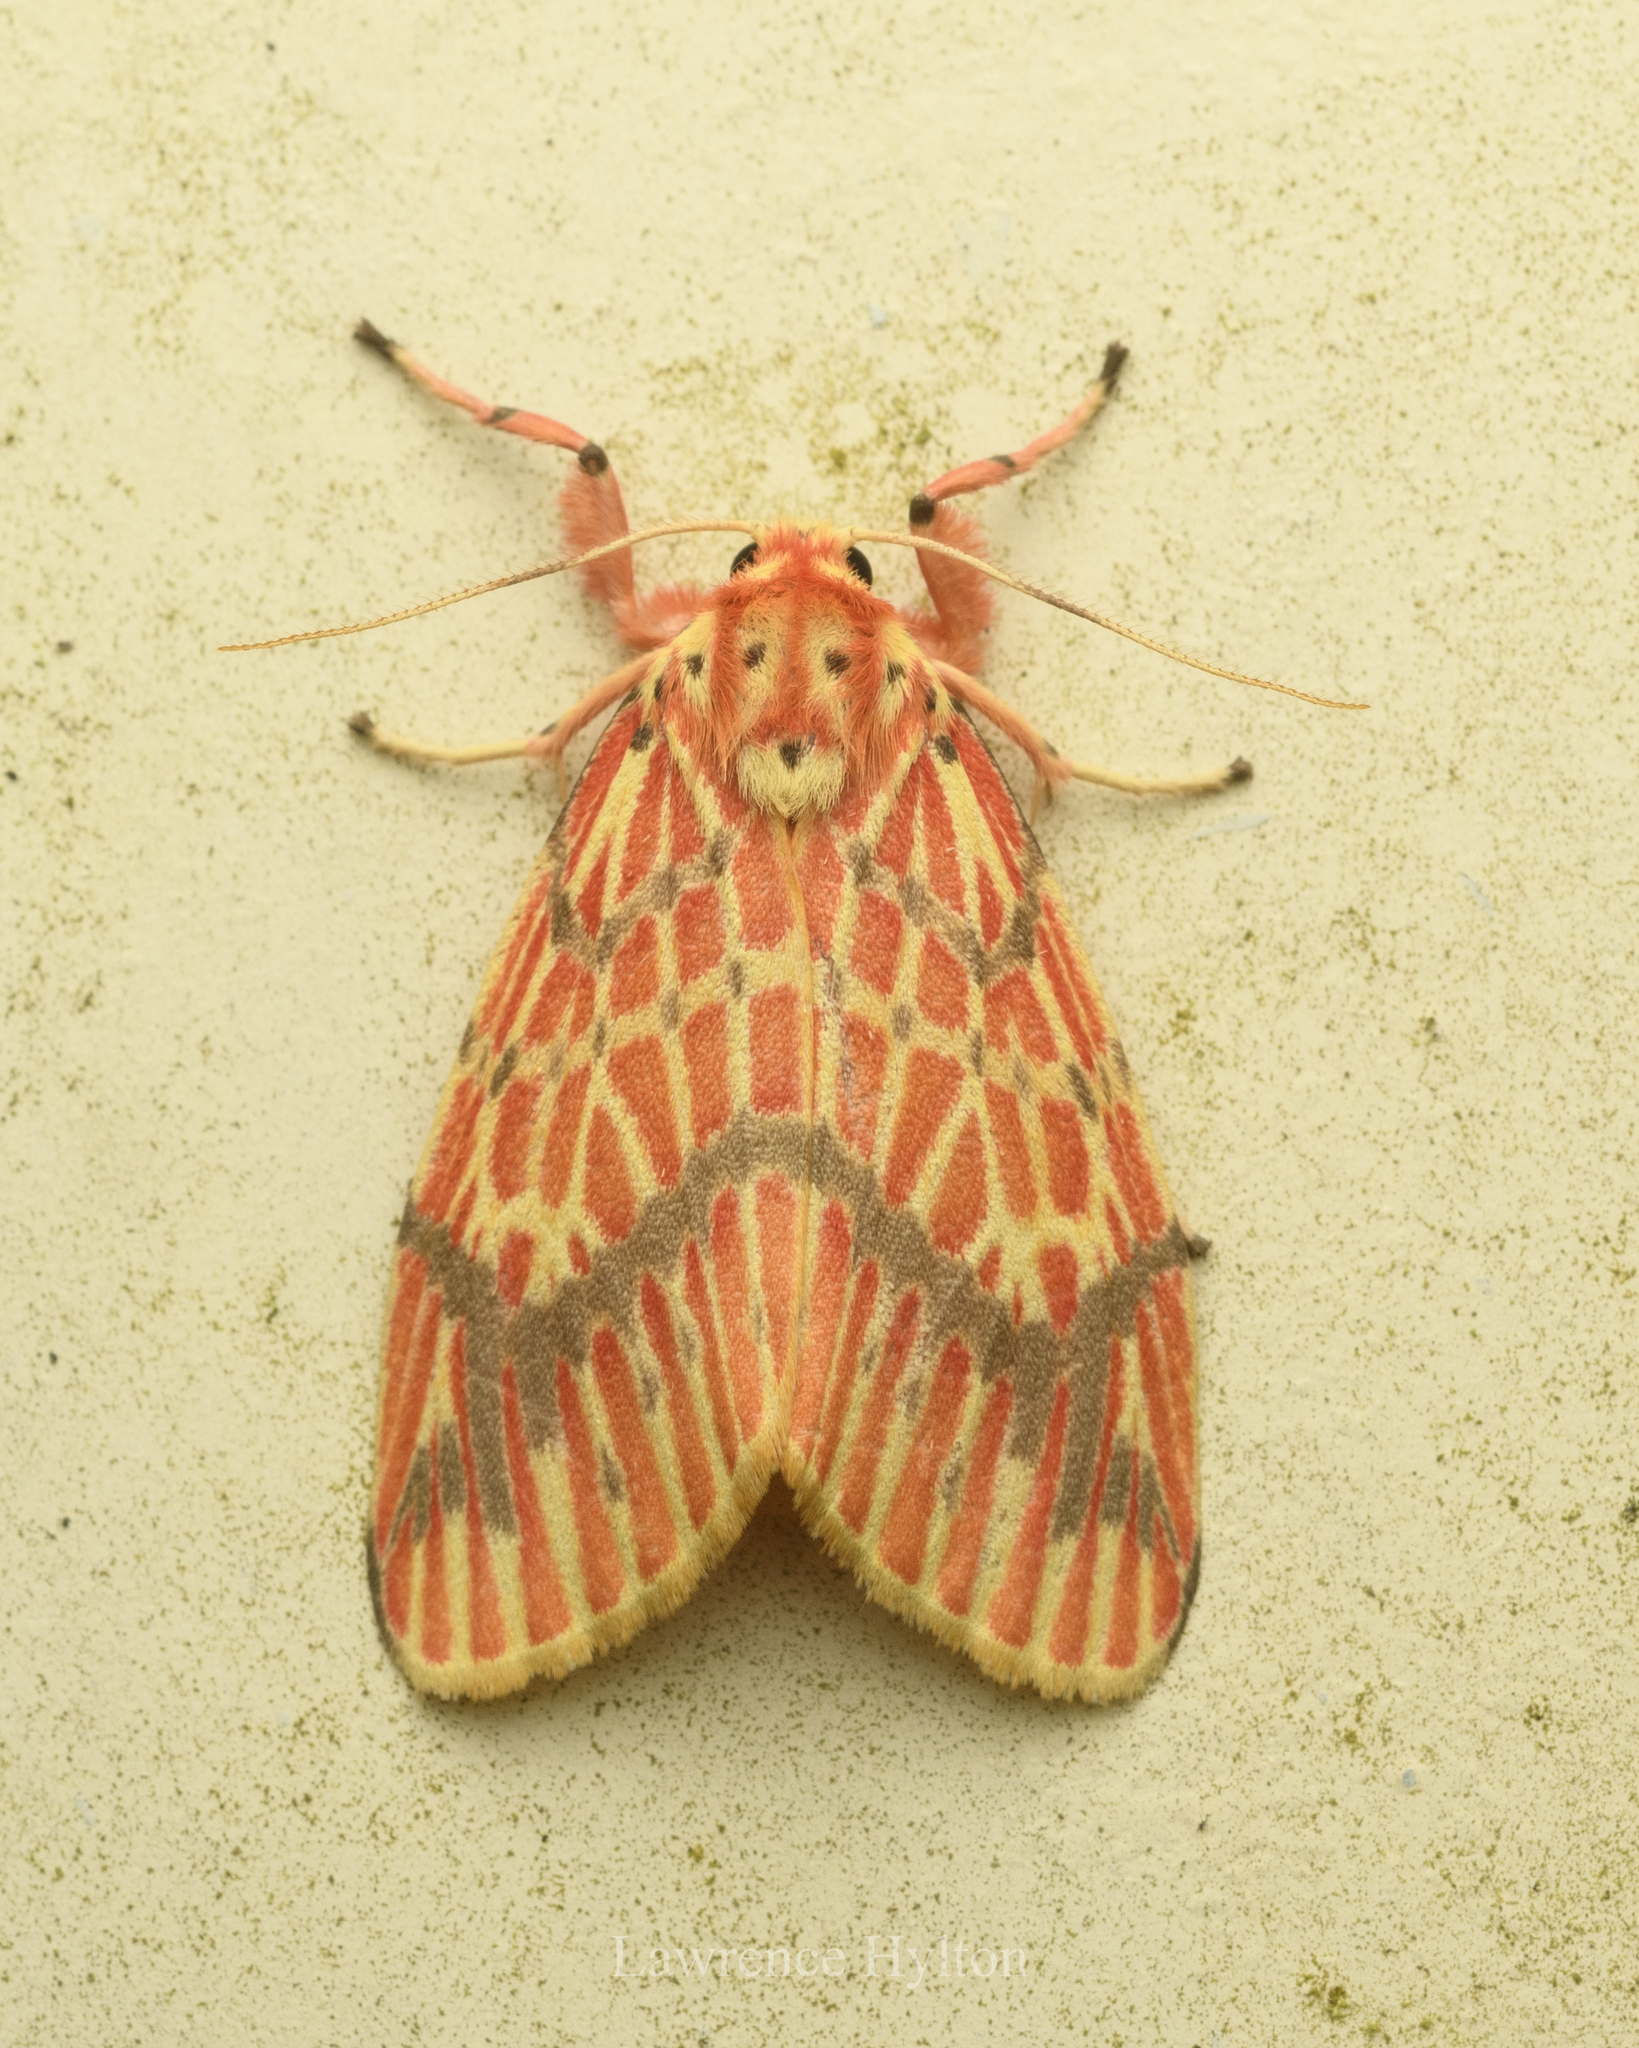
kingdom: Animalia
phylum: Arthropoda
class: Insecta
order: Lepidoptera
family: Erebidae
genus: Barsine
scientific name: Barsine striata
